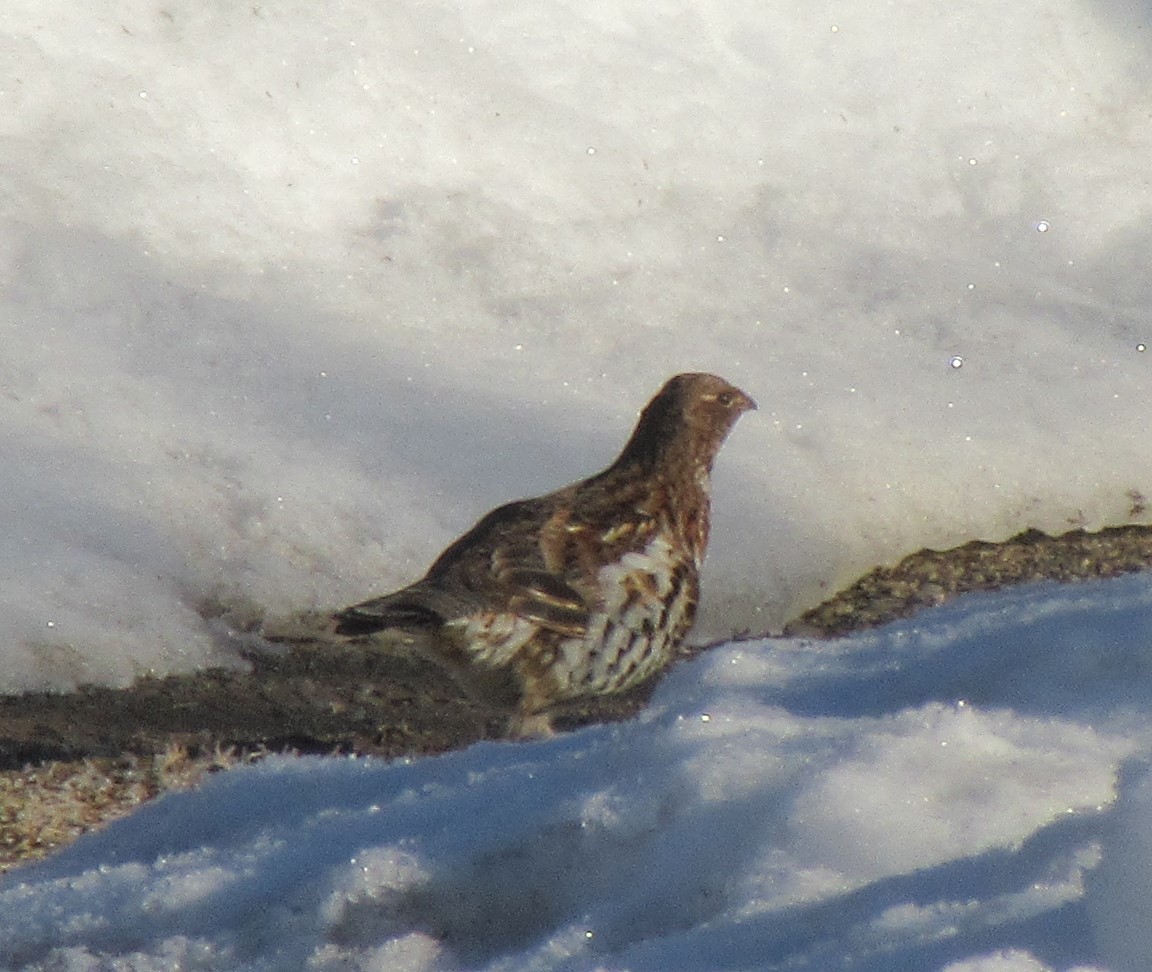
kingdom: Animalia
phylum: Chordata
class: Aves
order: Galliformes
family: Phasianidae
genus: Bonasa
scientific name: Bonasa umbellus
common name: Ruffed grouse
